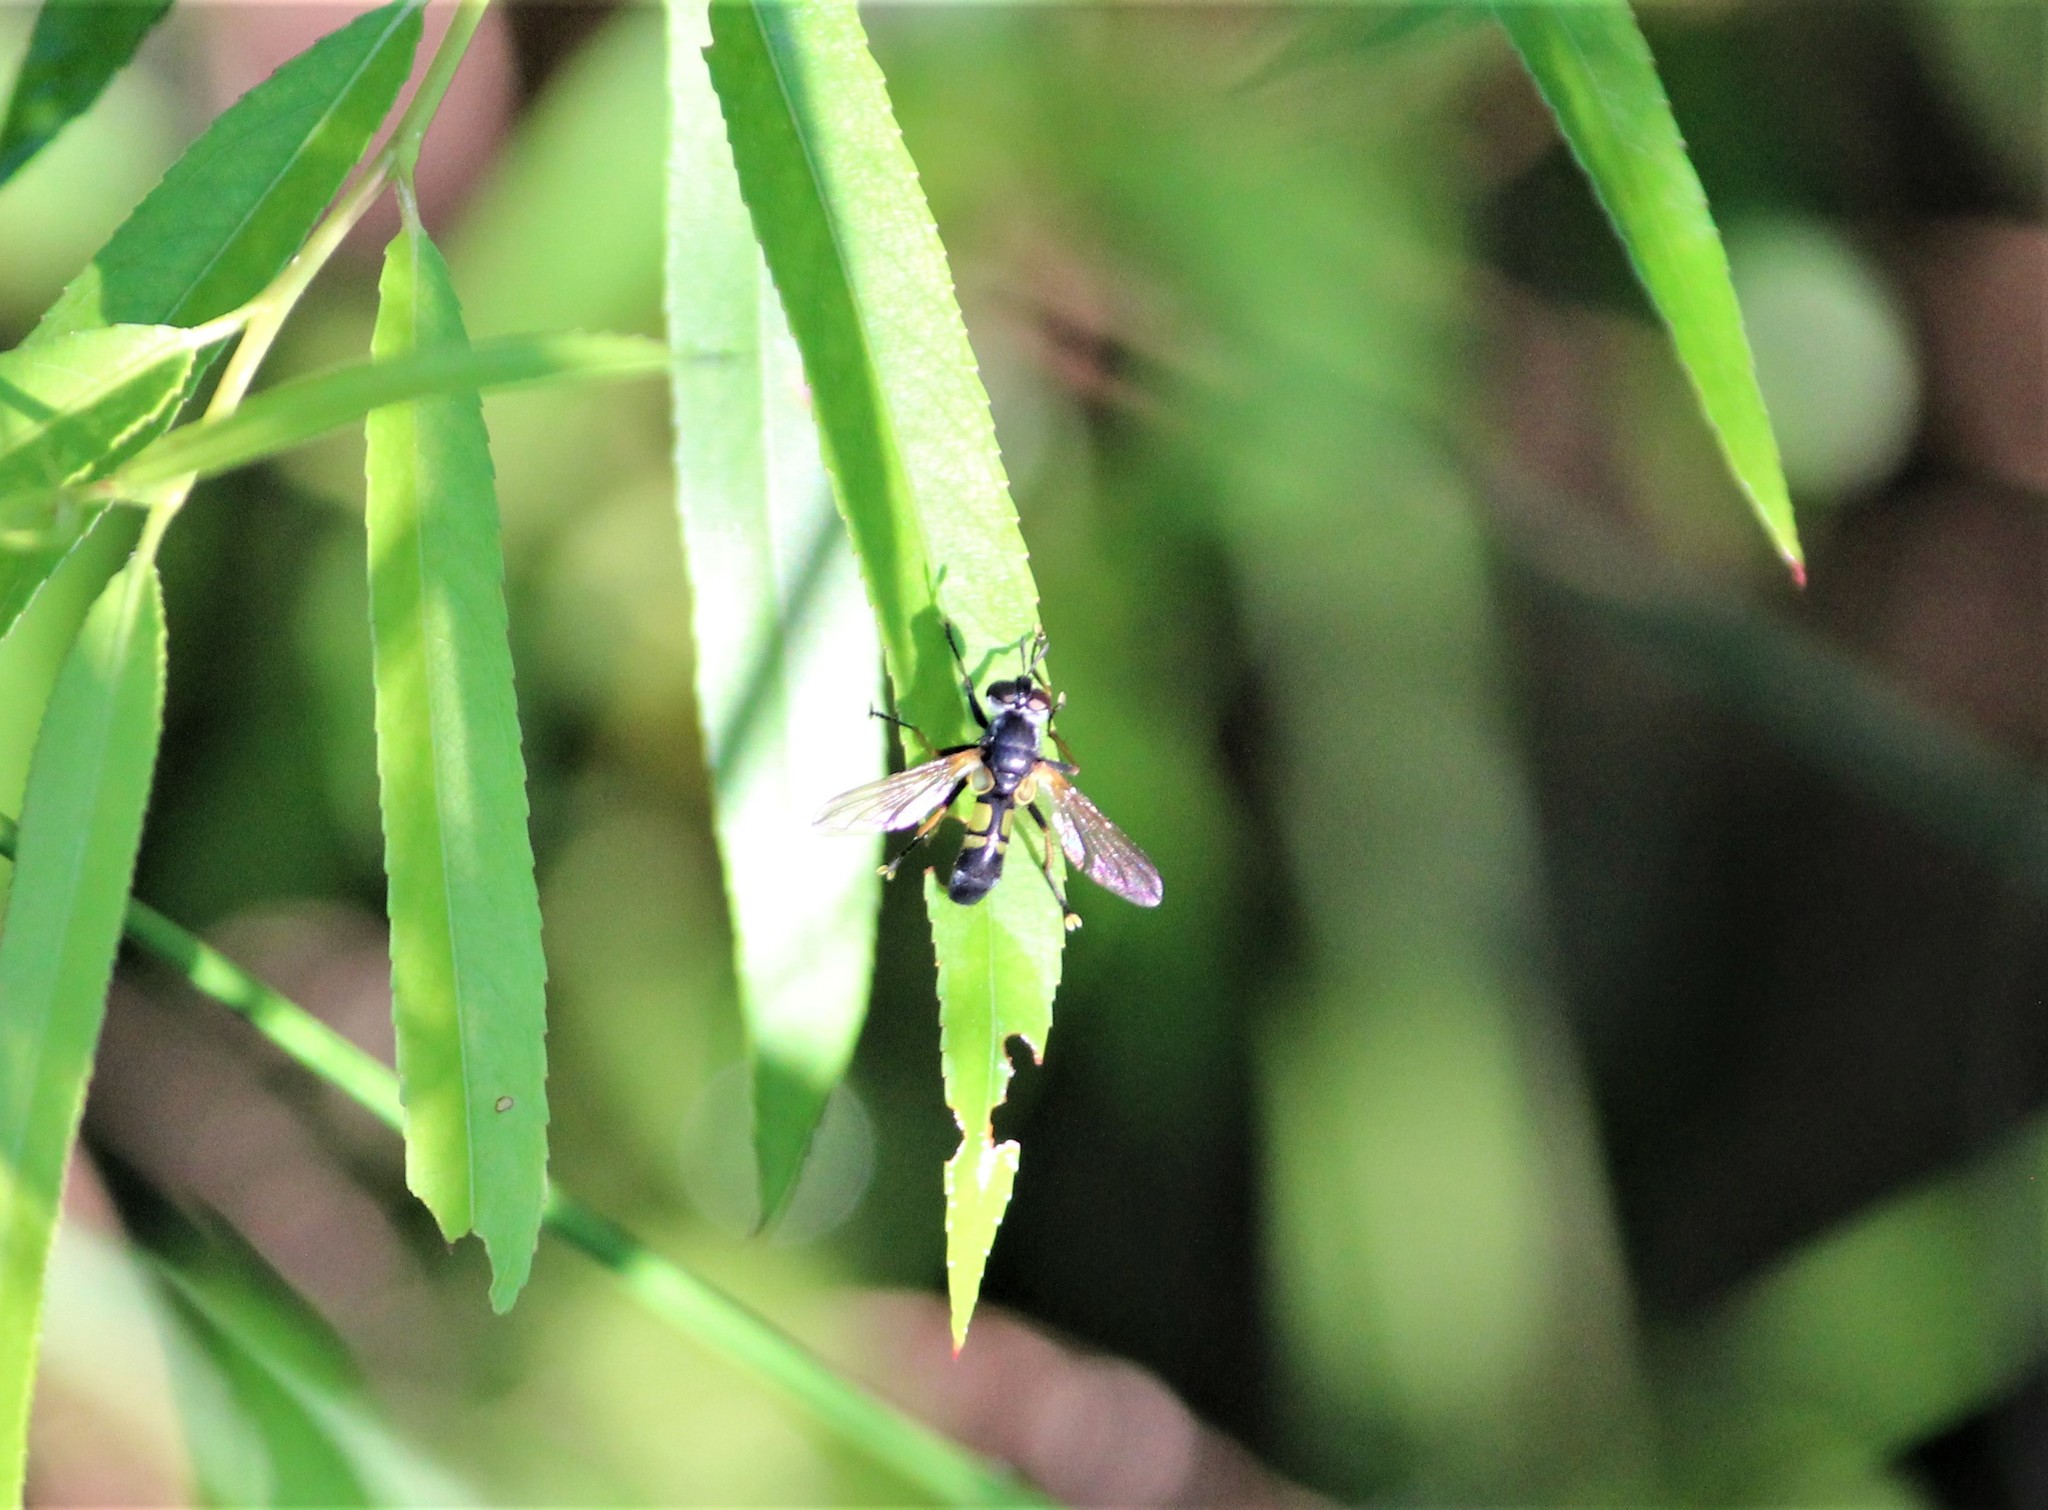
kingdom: Animalia
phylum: Arthropoda
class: Insecta
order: Diptera
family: Tachinidae
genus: Hemyda
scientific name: Hemyda aurata
